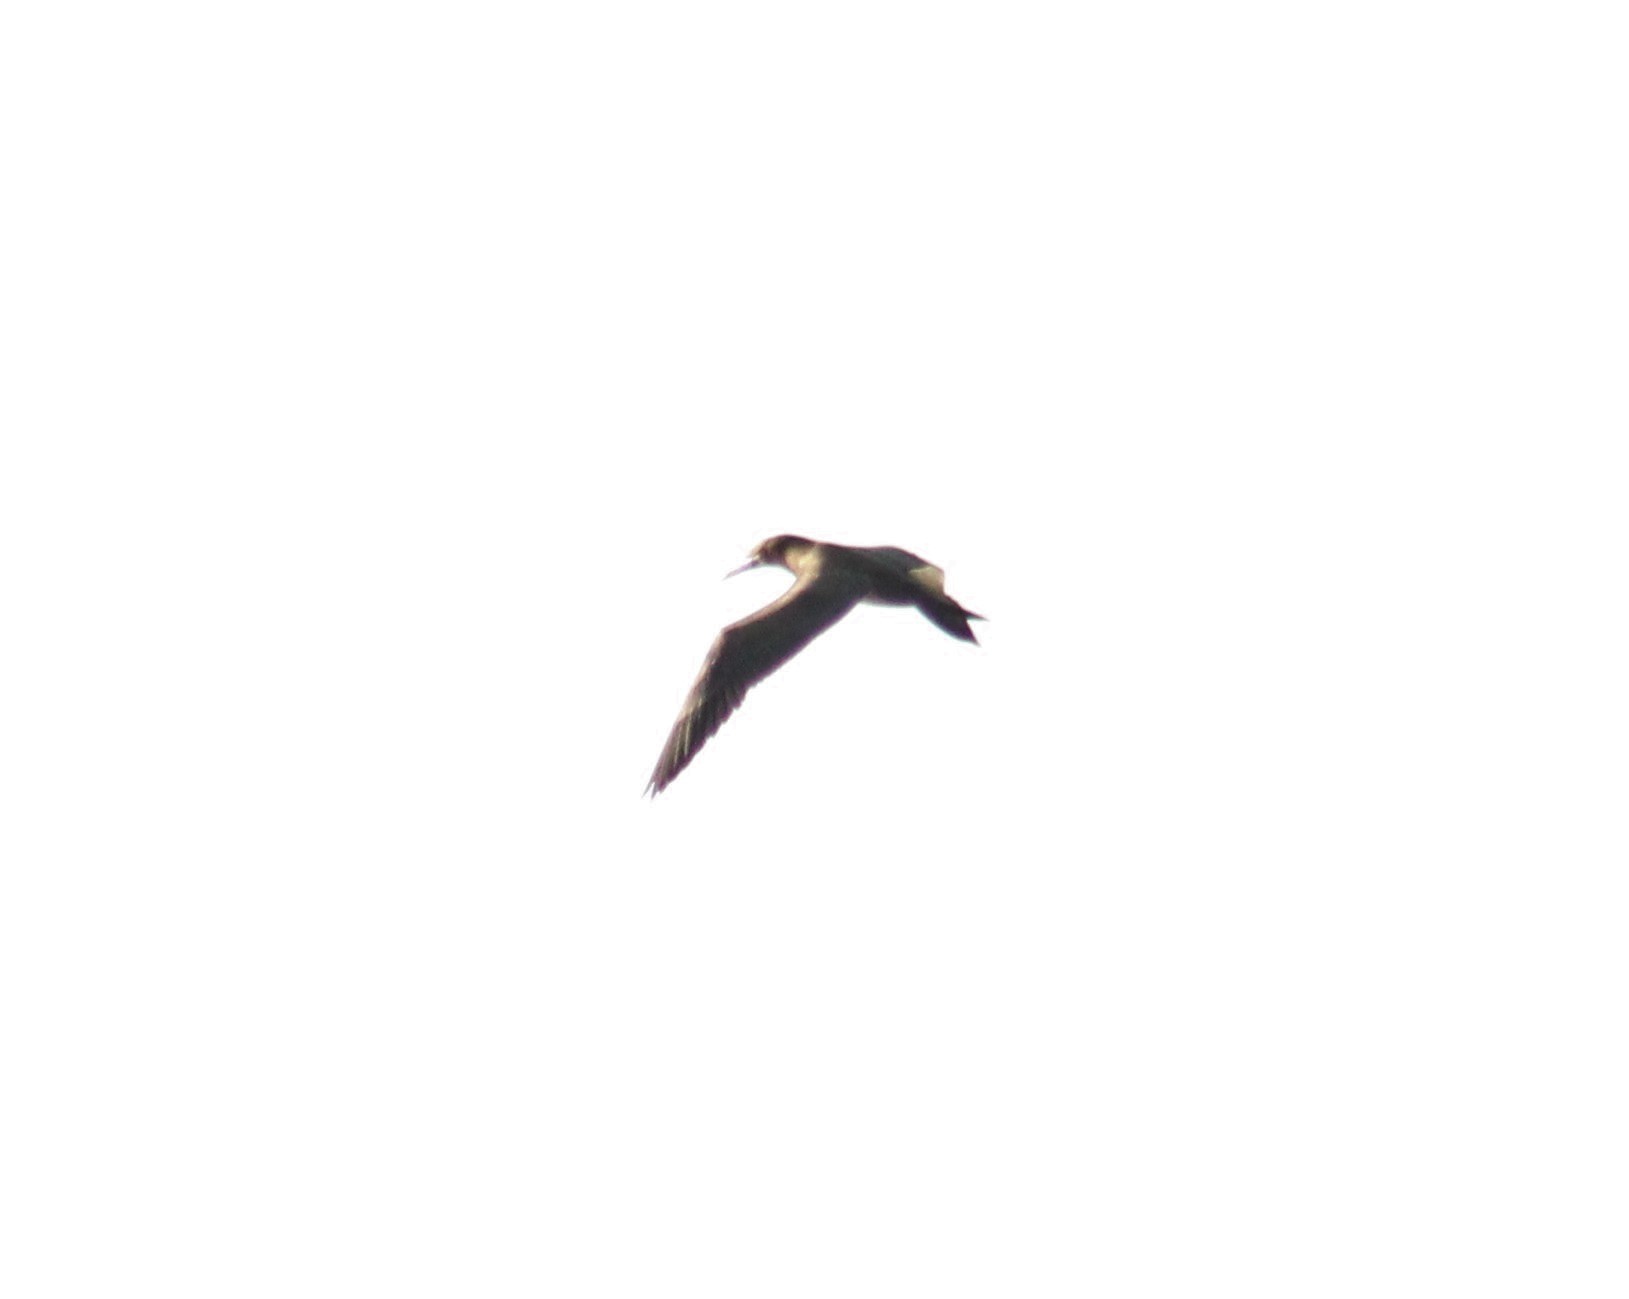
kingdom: Animalia
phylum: Chordata
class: Aves
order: Suliformes
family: Sulidae
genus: Sula
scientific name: Sula leucogaster
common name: Brown booby
